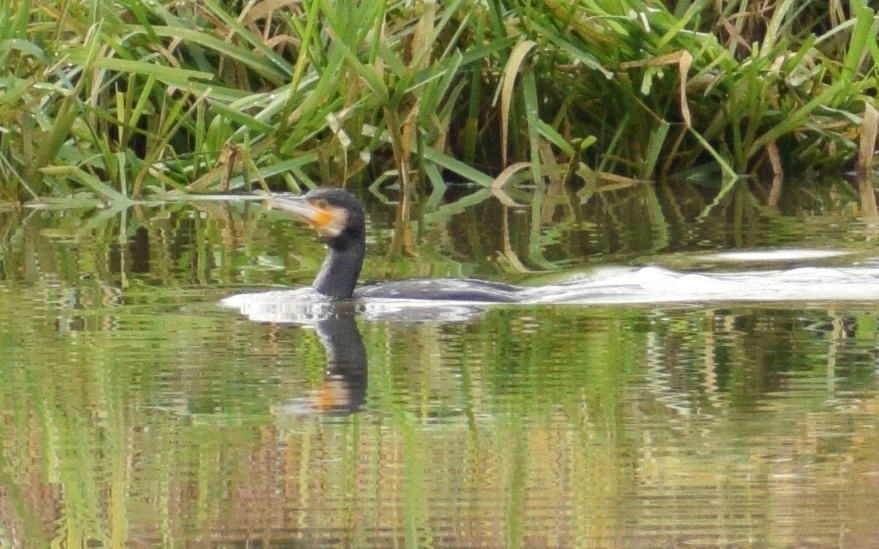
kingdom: Animalia
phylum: Chordata
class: Aves
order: Suliformes
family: Phalacrocoracidae
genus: Phalacrocorax
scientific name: Phalacrocorax carbo
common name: Great cormorant
